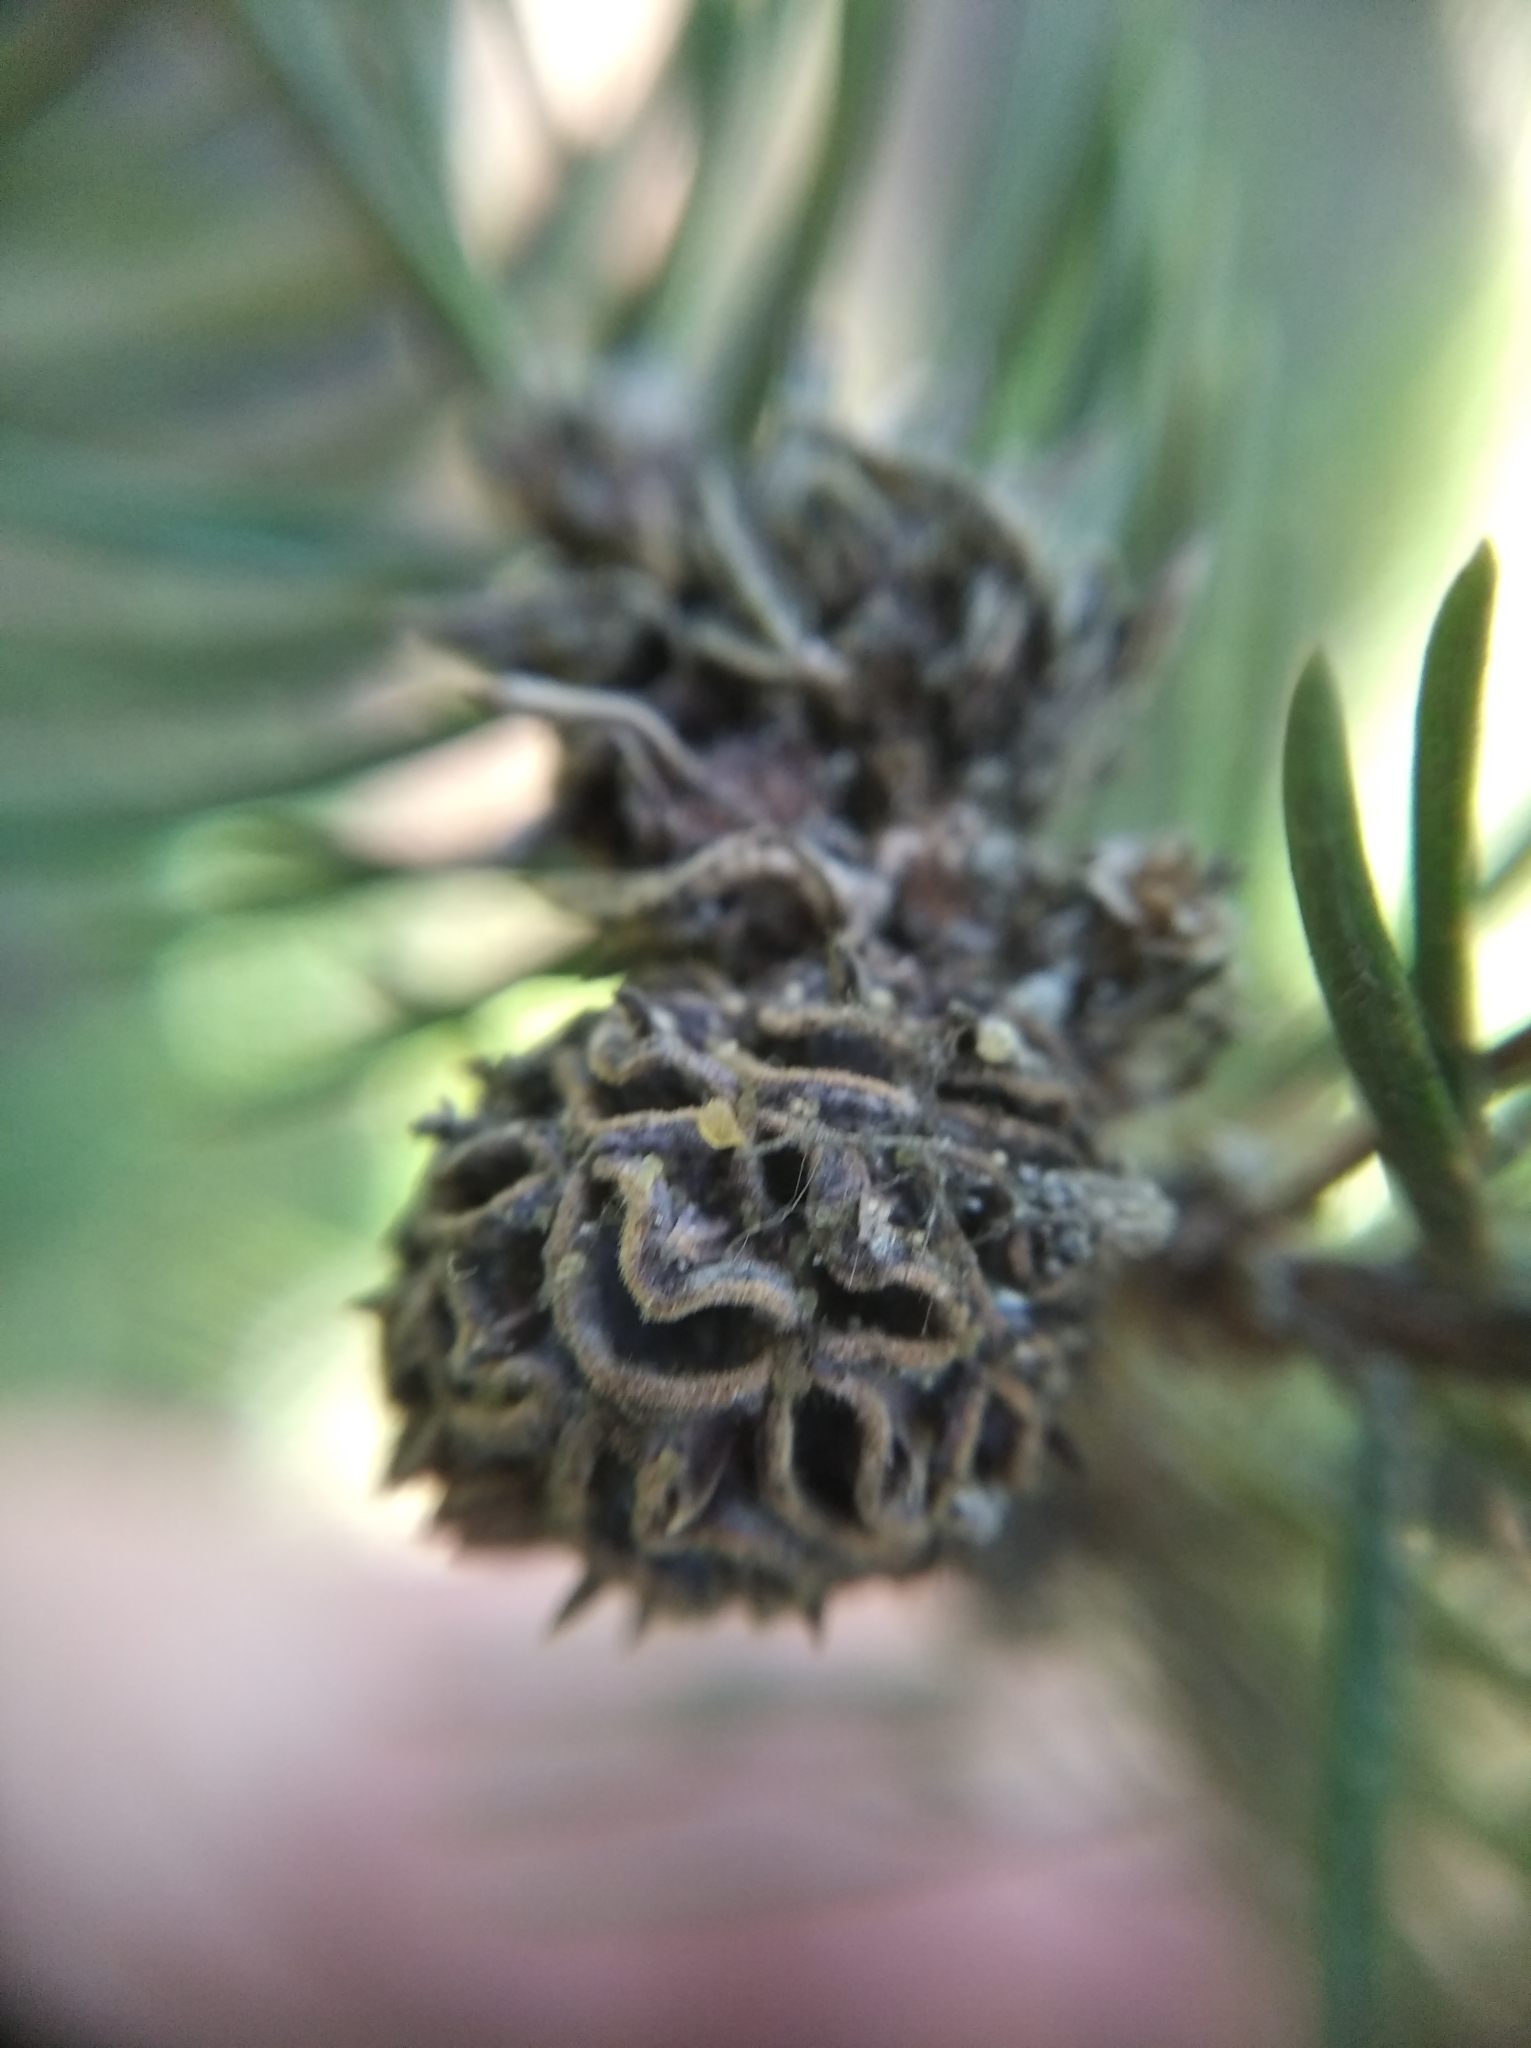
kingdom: Animalia
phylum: Arthropoda
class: Insecta
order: Hemiptera
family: Adelgidae
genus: Adelges
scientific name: Adelges abietis
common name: Eastern spruce gall adelgid
